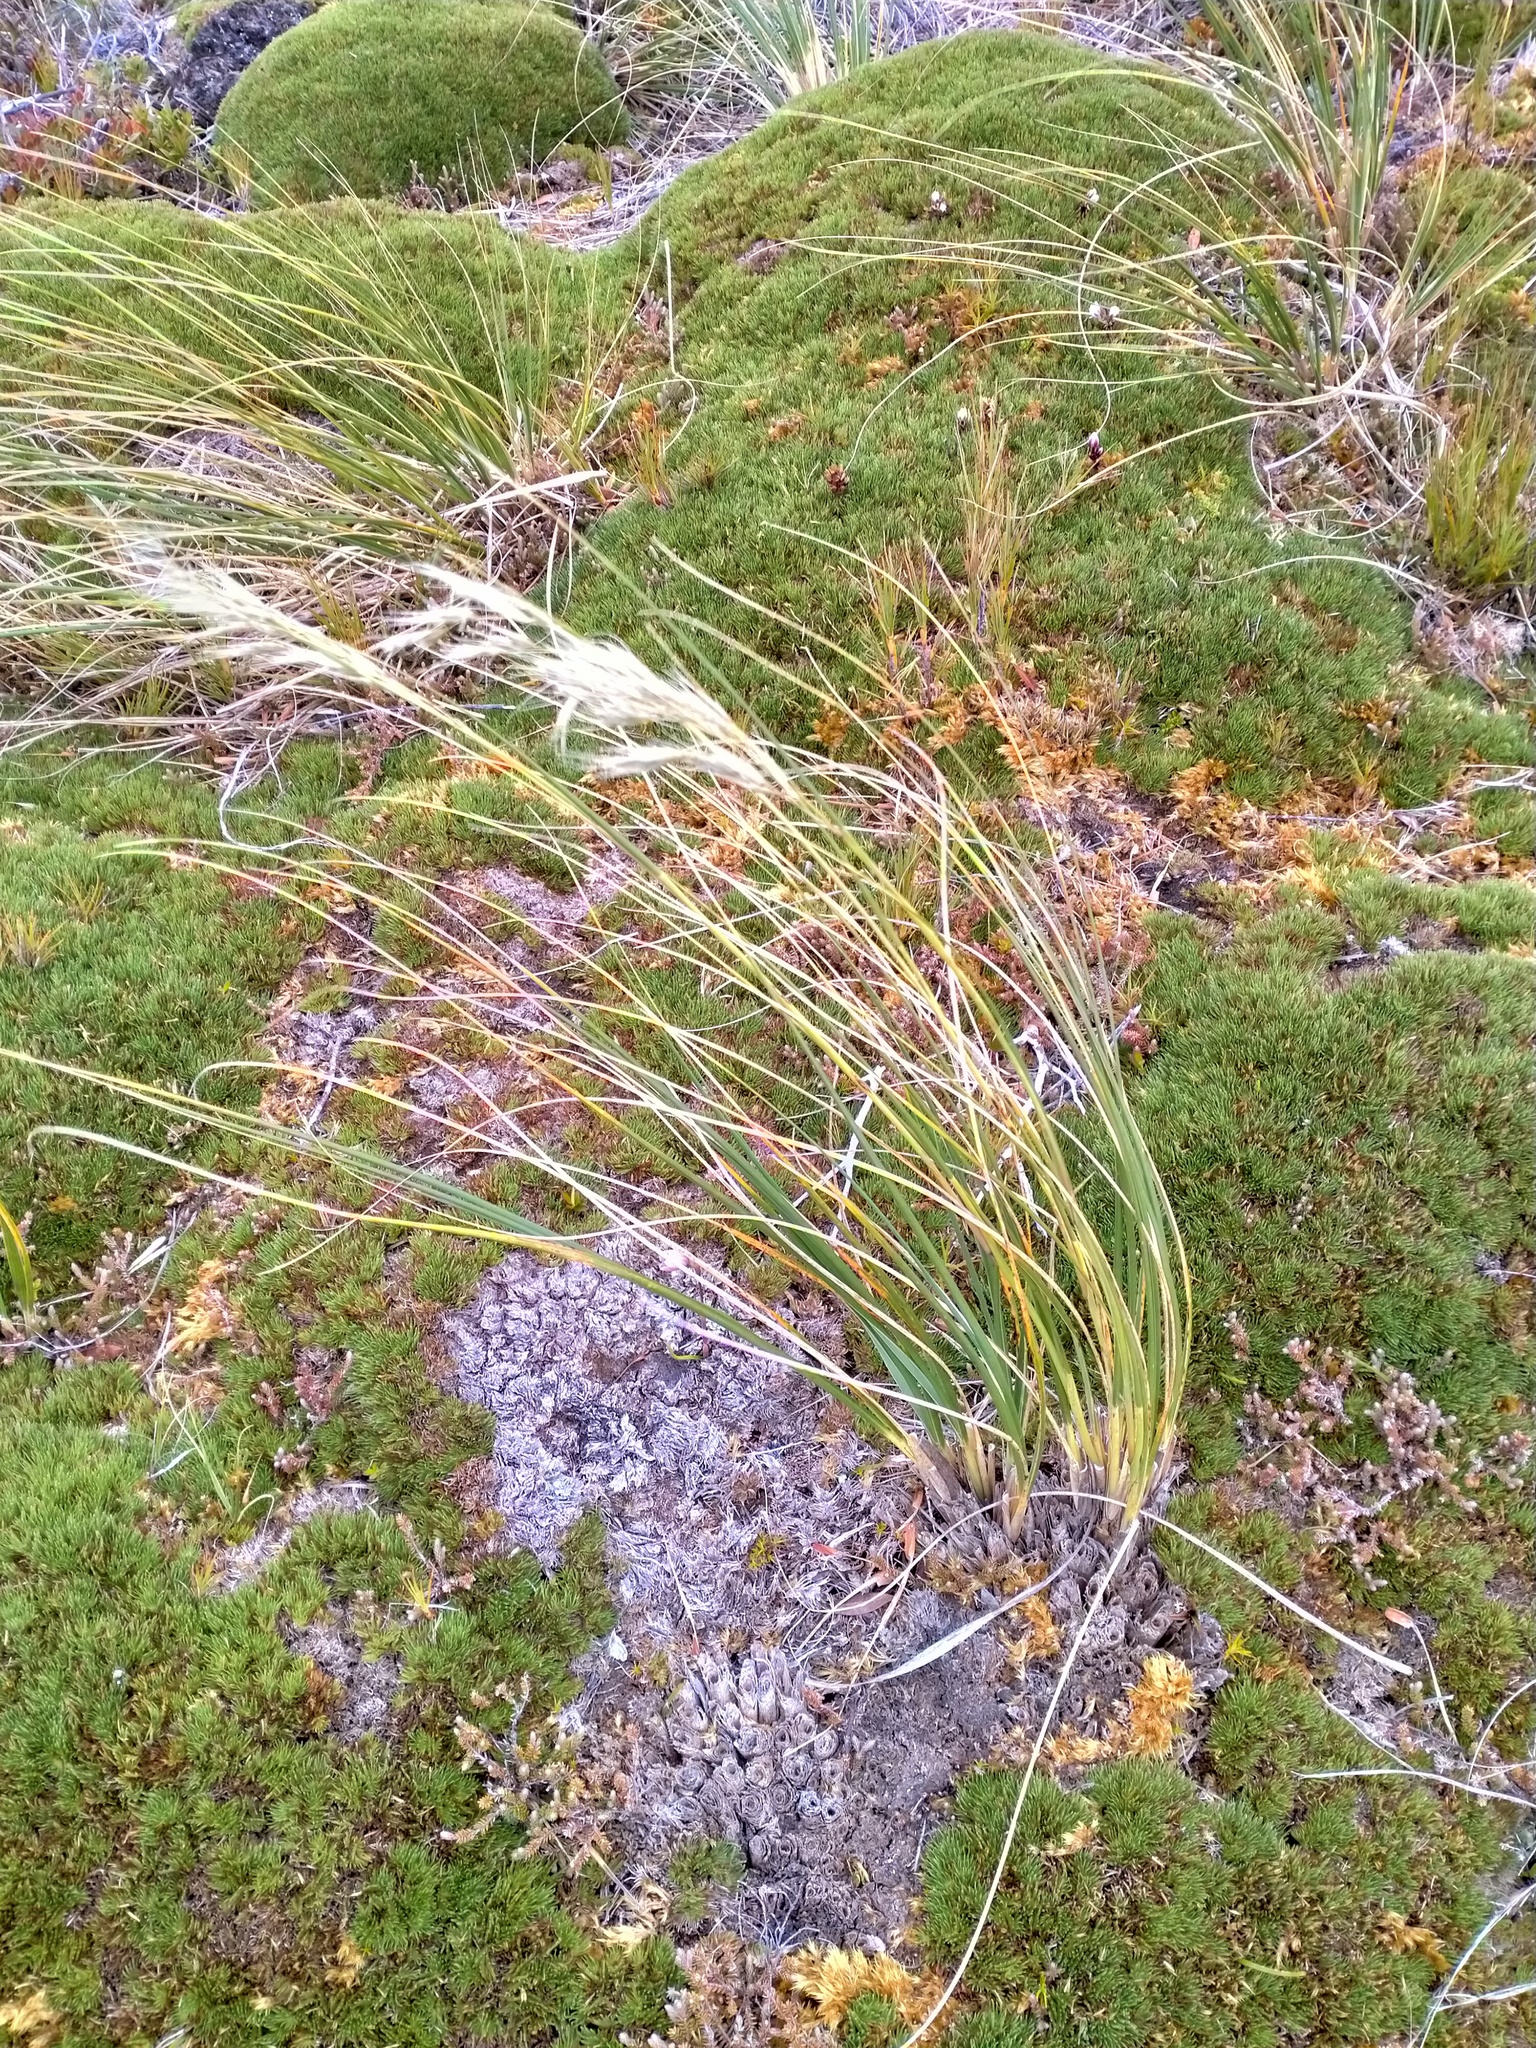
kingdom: Plantae
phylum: Tracheophyta
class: Liliopsida
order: Poales
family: Poaceae
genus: Chionochloa
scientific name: Chionochloa antarctica
